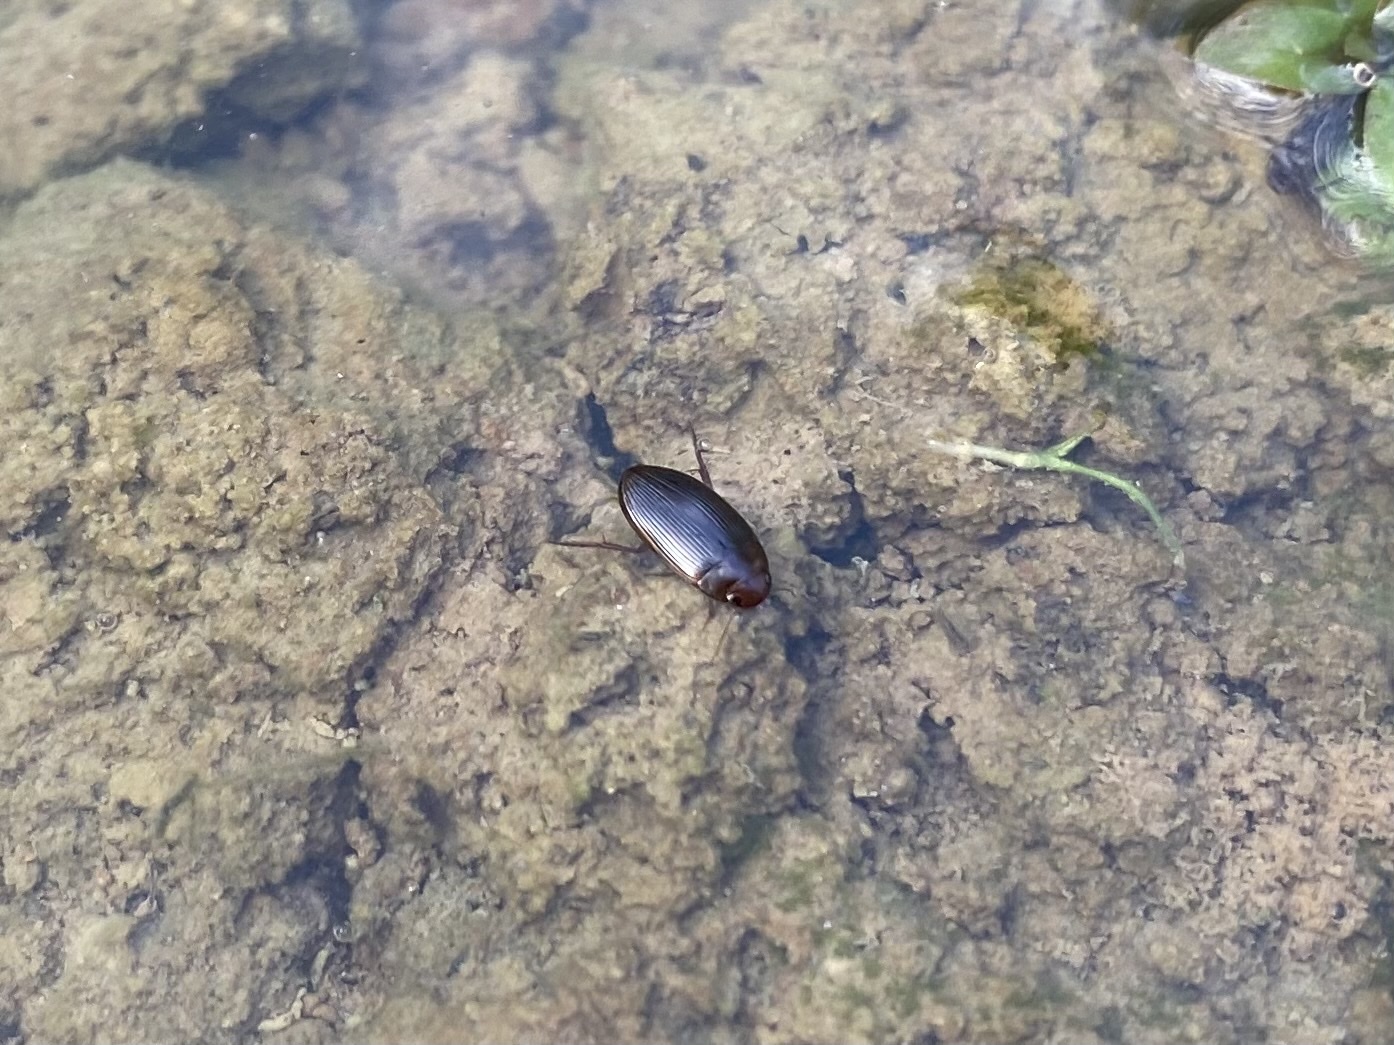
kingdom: Animalia
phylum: Arthropoda
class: Insecta
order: Coleoptera
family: Dytiscidae
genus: Copelatus
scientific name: Copelatus glyphicus
